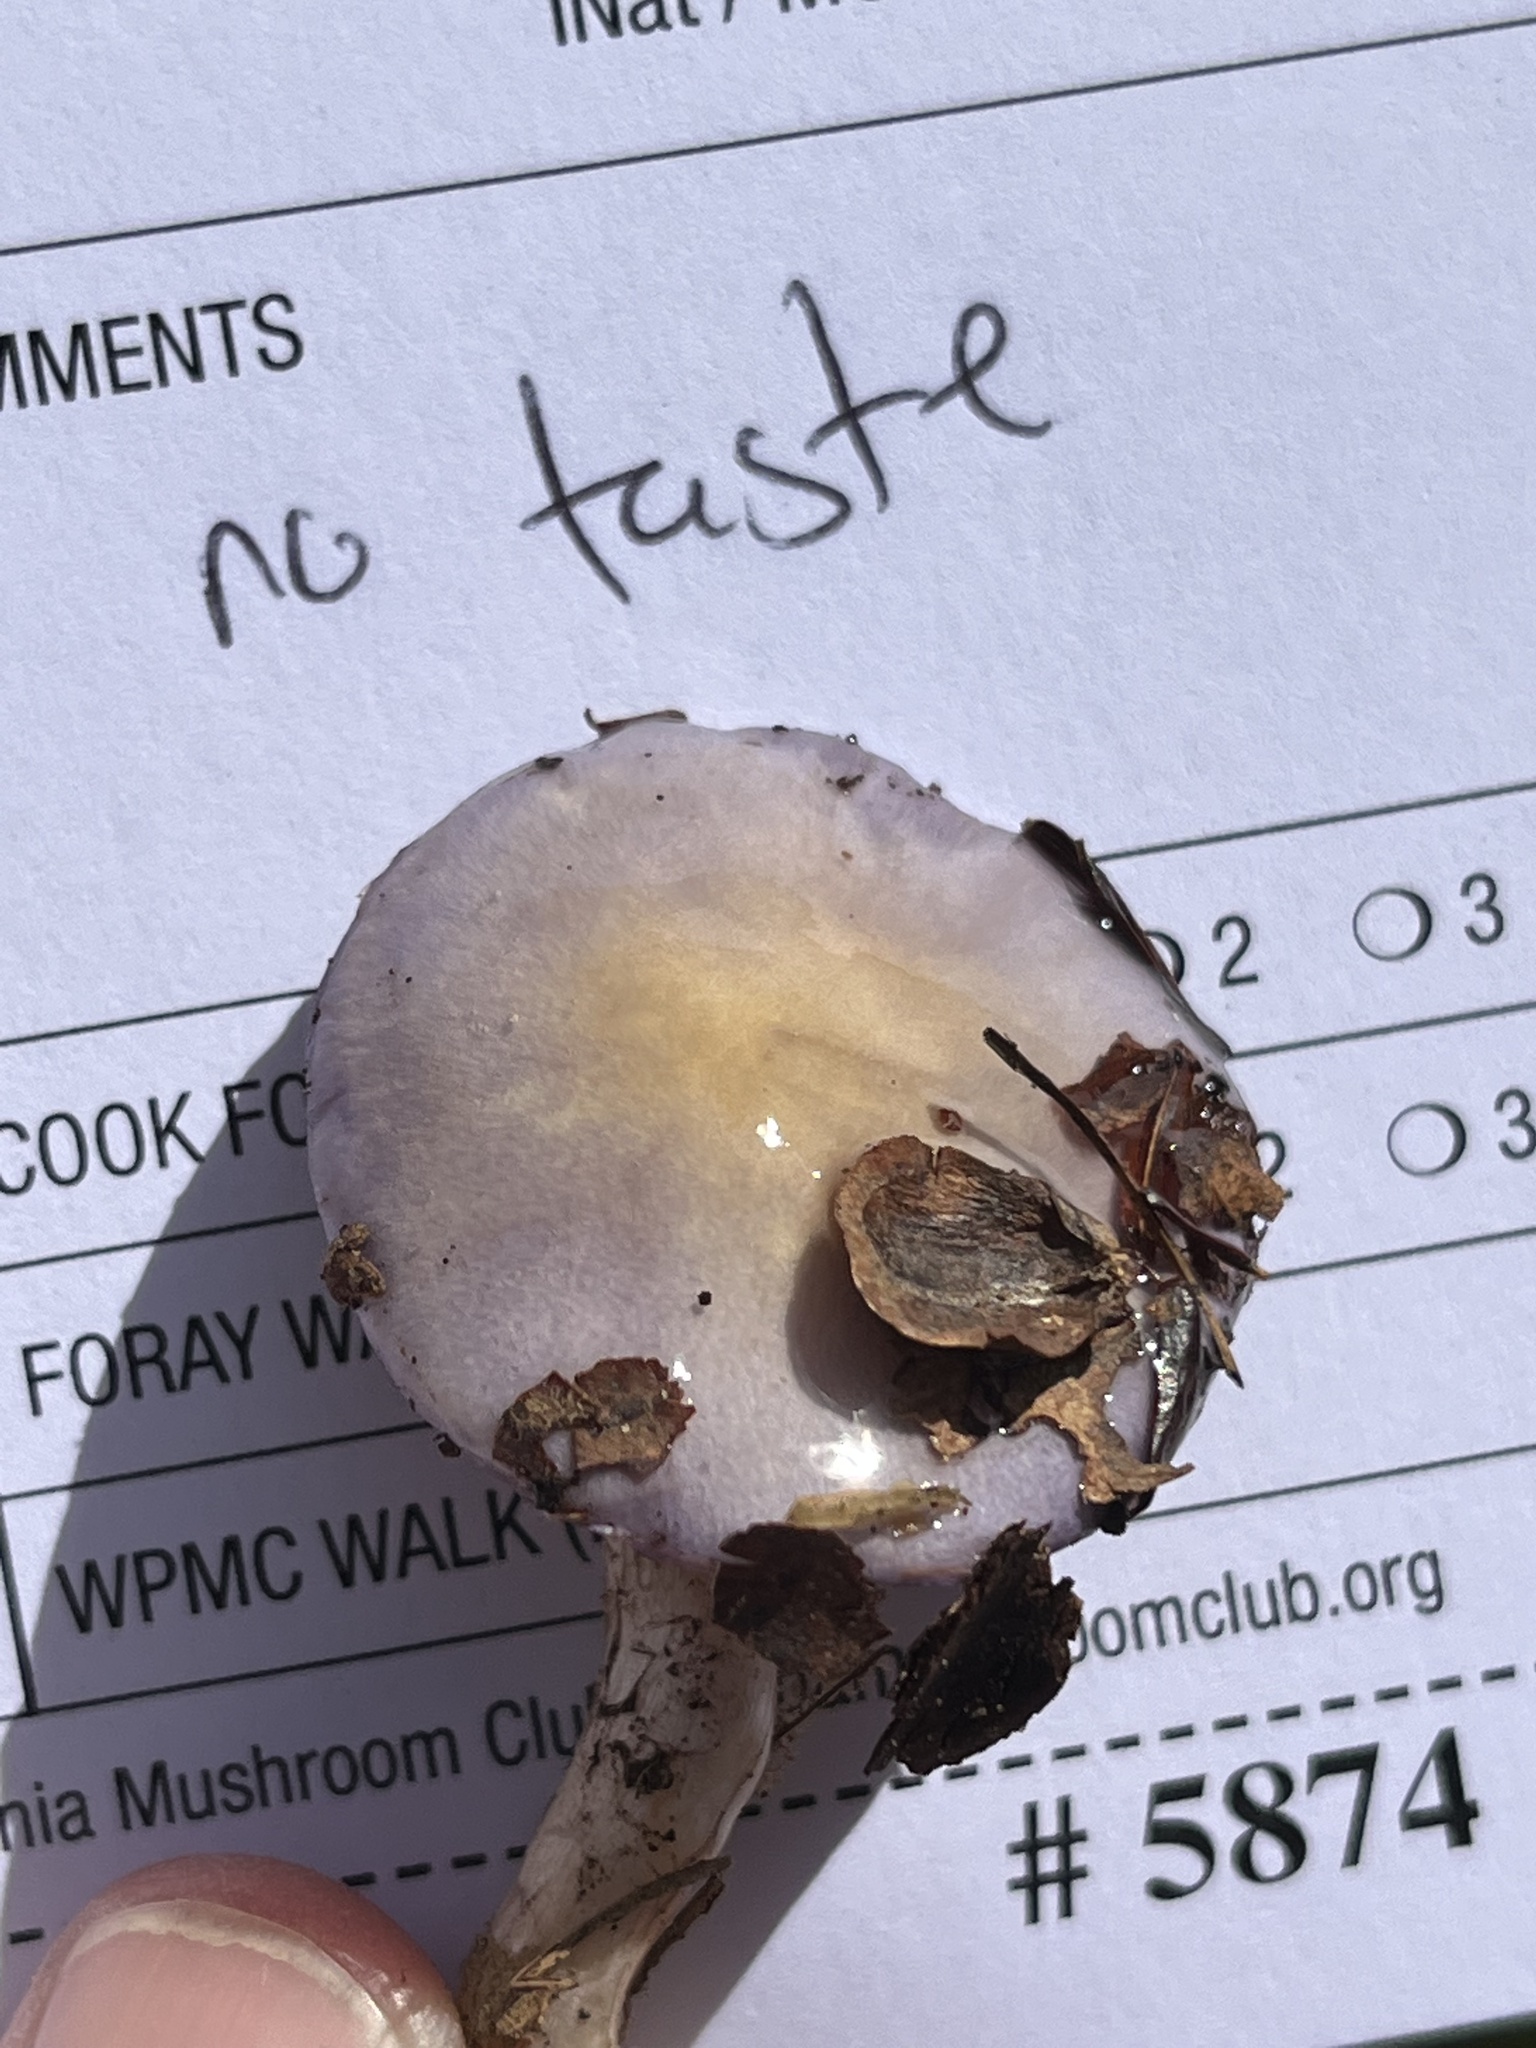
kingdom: Fungi
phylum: Basidiomycota
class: Agaricomycetes
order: Agaricales
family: Cortinariaceae
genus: Cortinarius
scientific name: Cortinarius iodes
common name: Viscid violet cort
